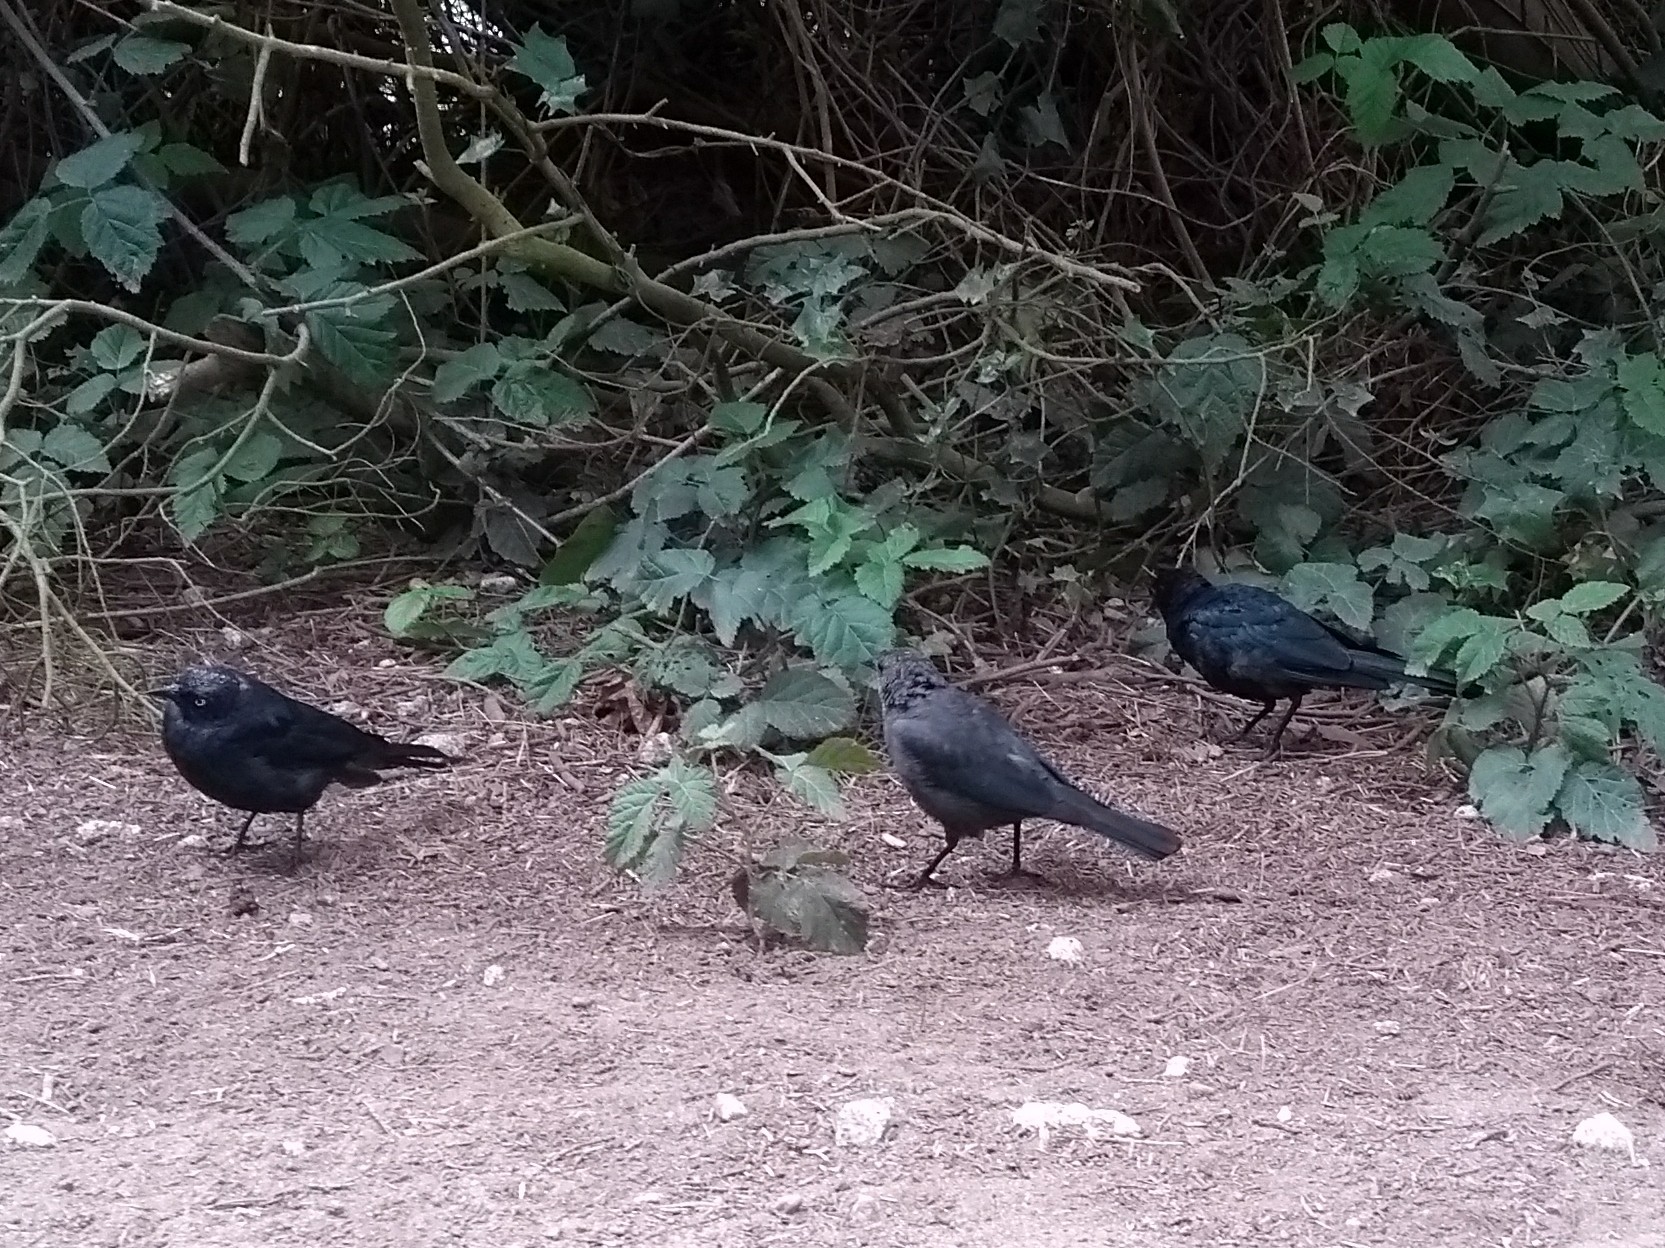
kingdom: Animalia
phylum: Chordata
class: Aves
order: Passeriformes
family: Icteridae
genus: Euphagus
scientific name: Euphagus cyanocephalus
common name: Brewer's blackbird
